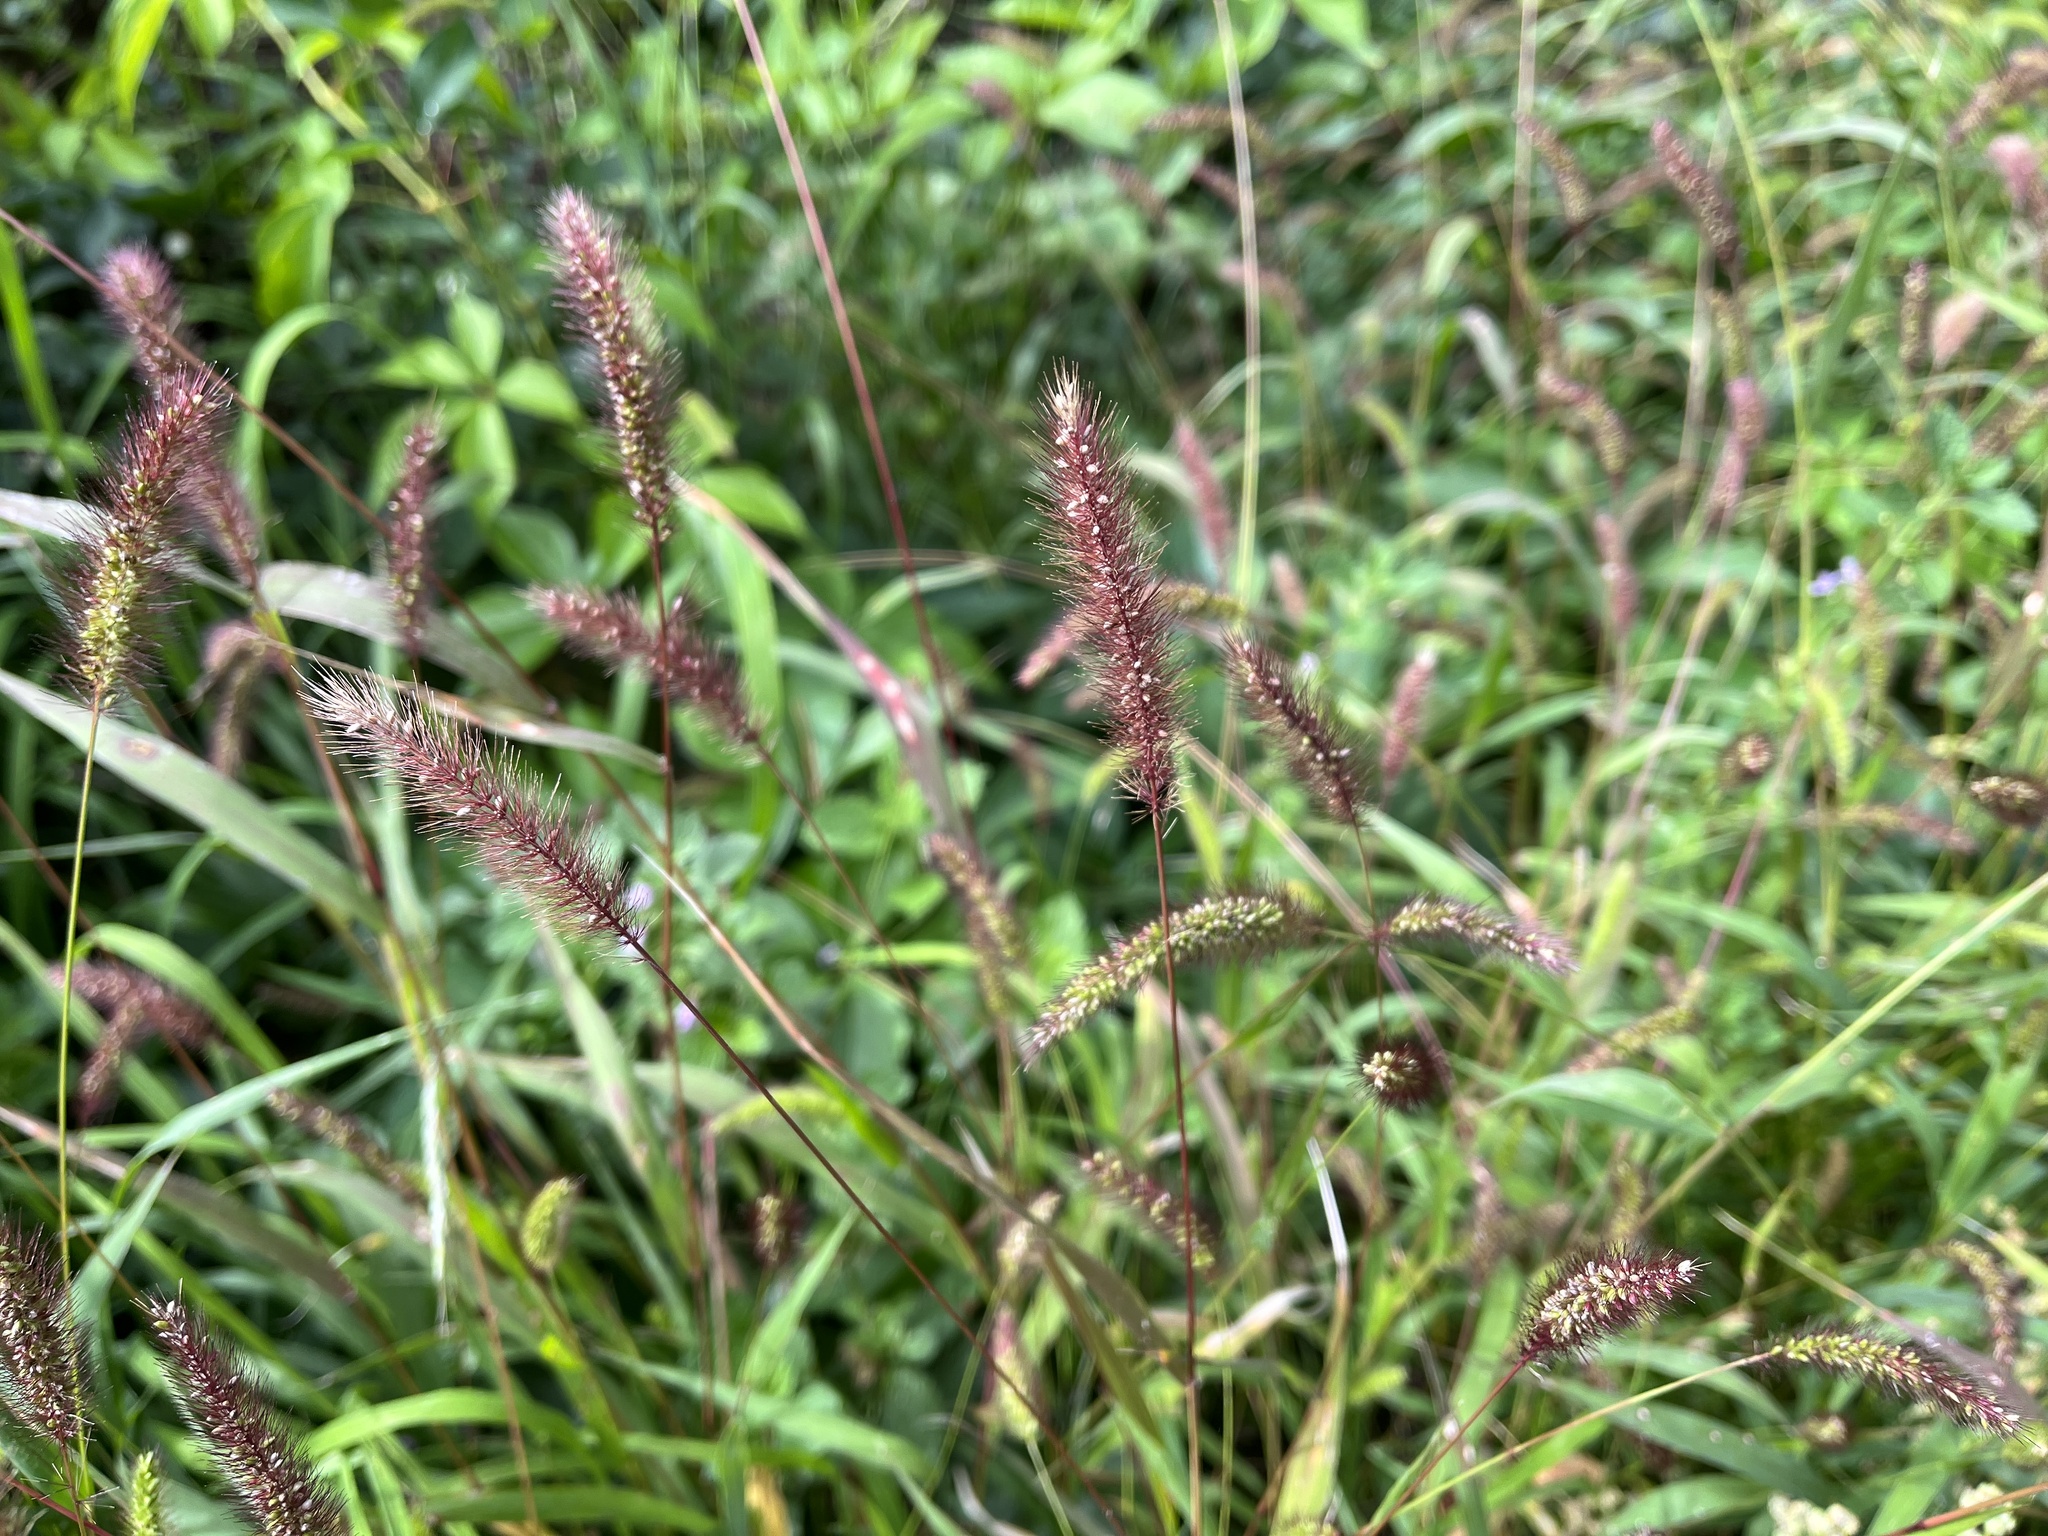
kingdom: Plantae
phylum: Tracheophyta
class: Liliopsida
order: Poales
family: Poaceae
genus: Setaria
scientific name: Setaria viridis
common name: Green bristlegrass
